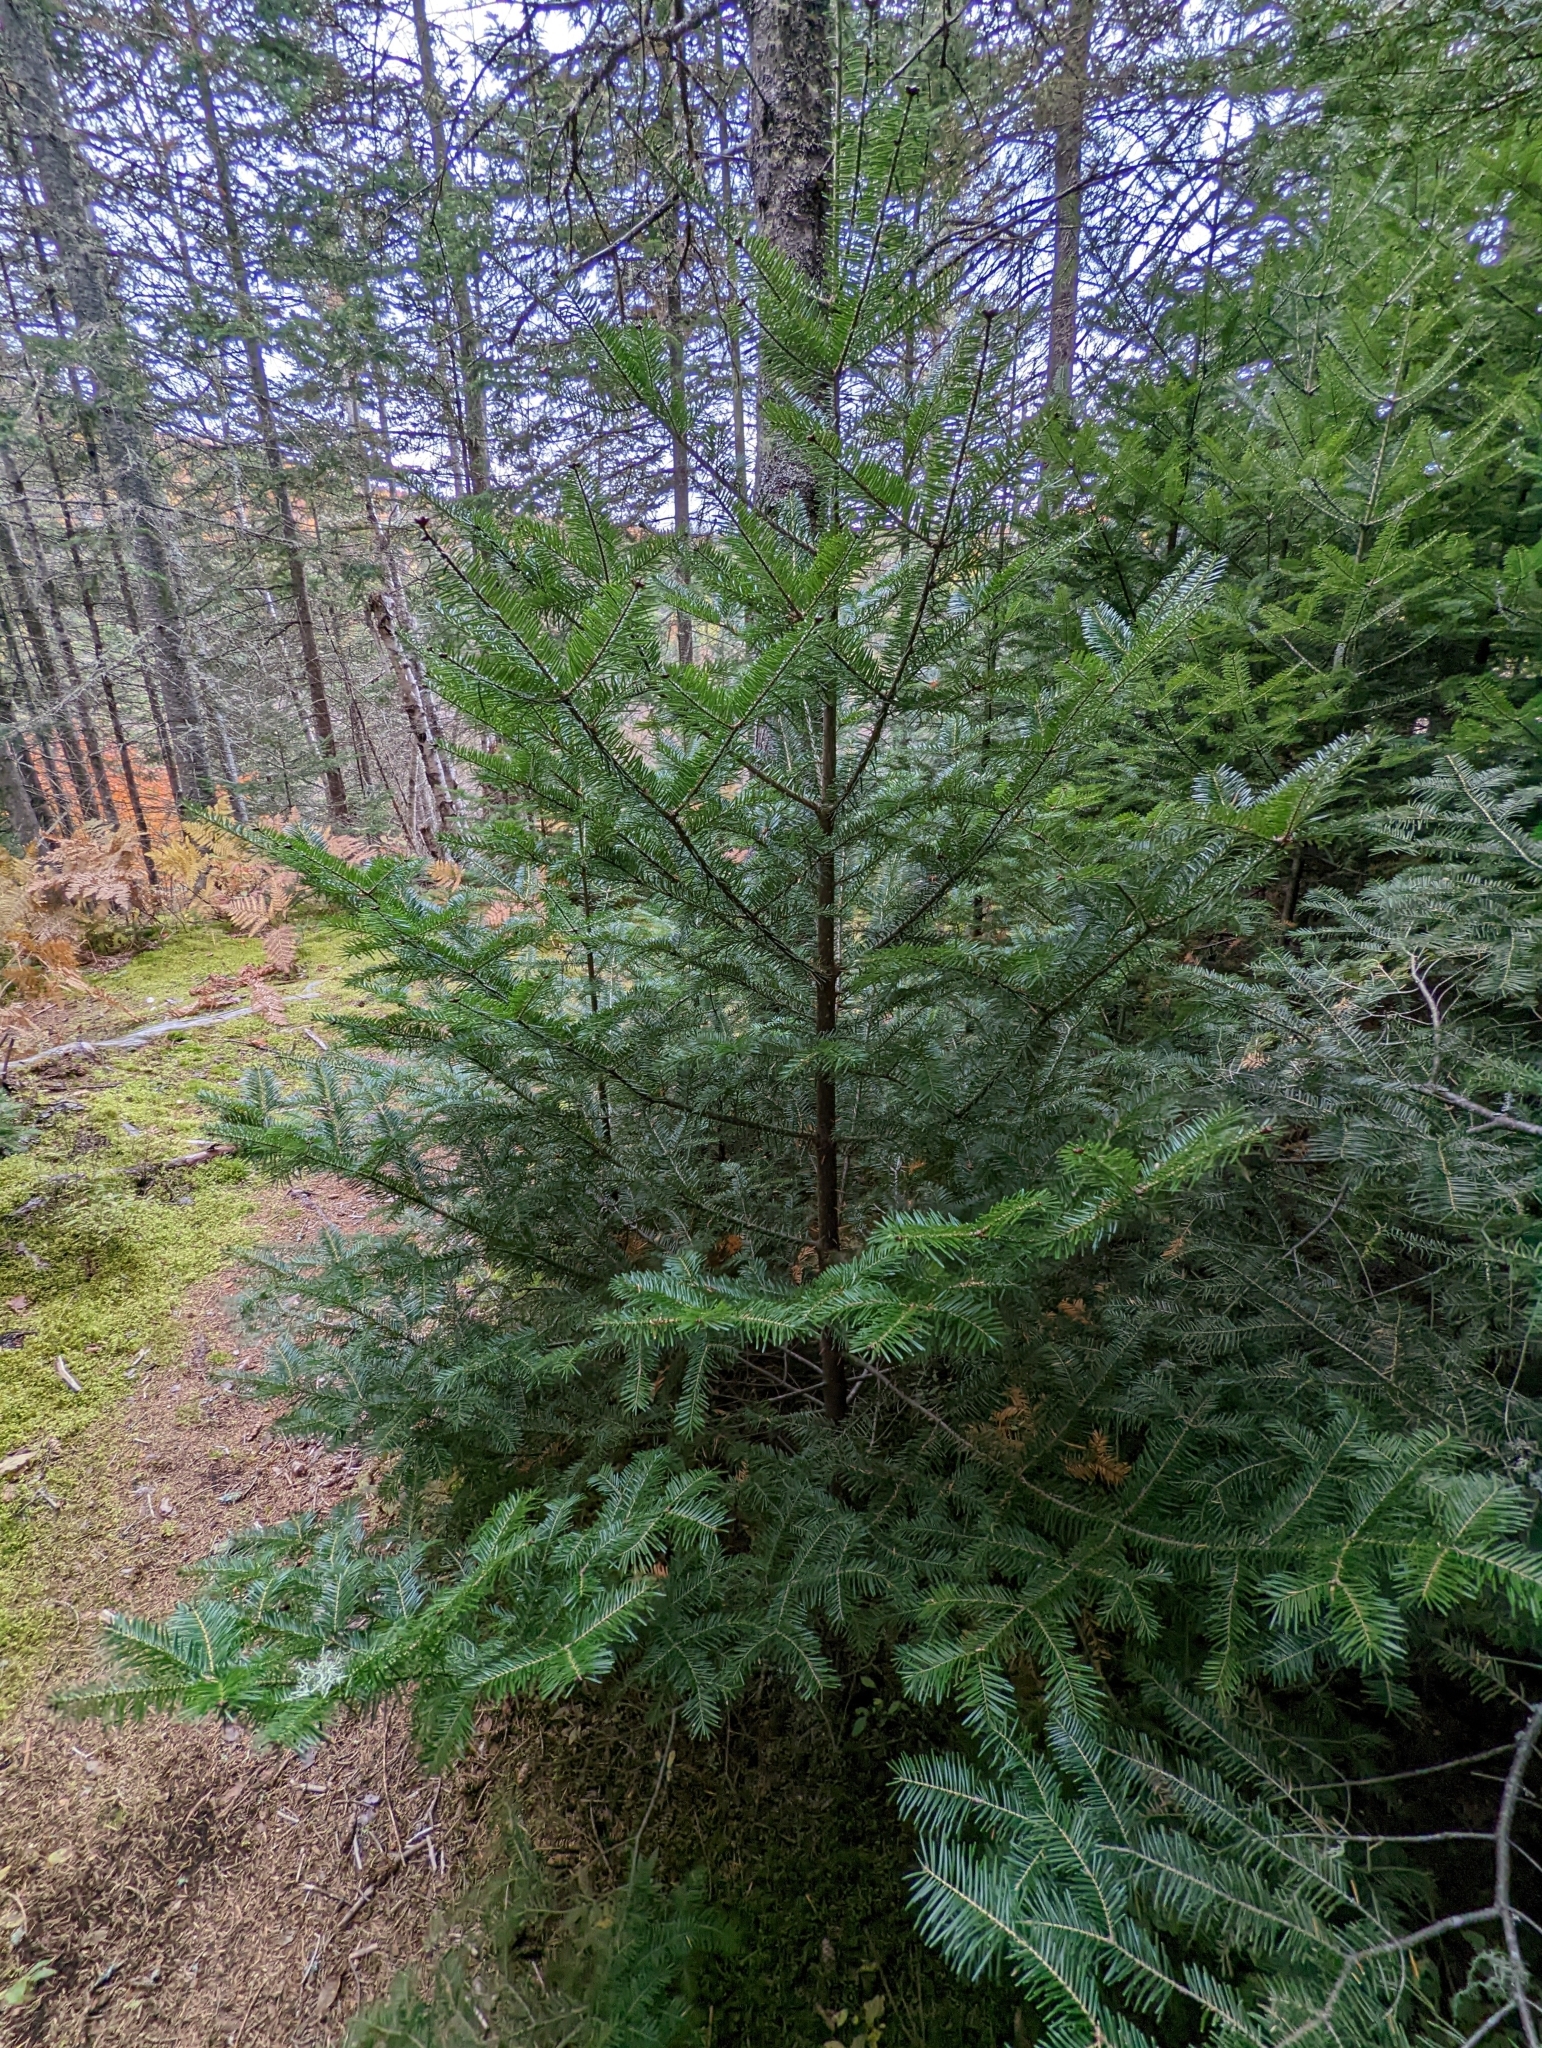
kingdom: Plantae
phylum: Tracheophyta
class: Pinopsida
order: Pinales
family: Pinaceae
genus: Abies
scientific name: Abies balsamea
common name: Balsam fir
